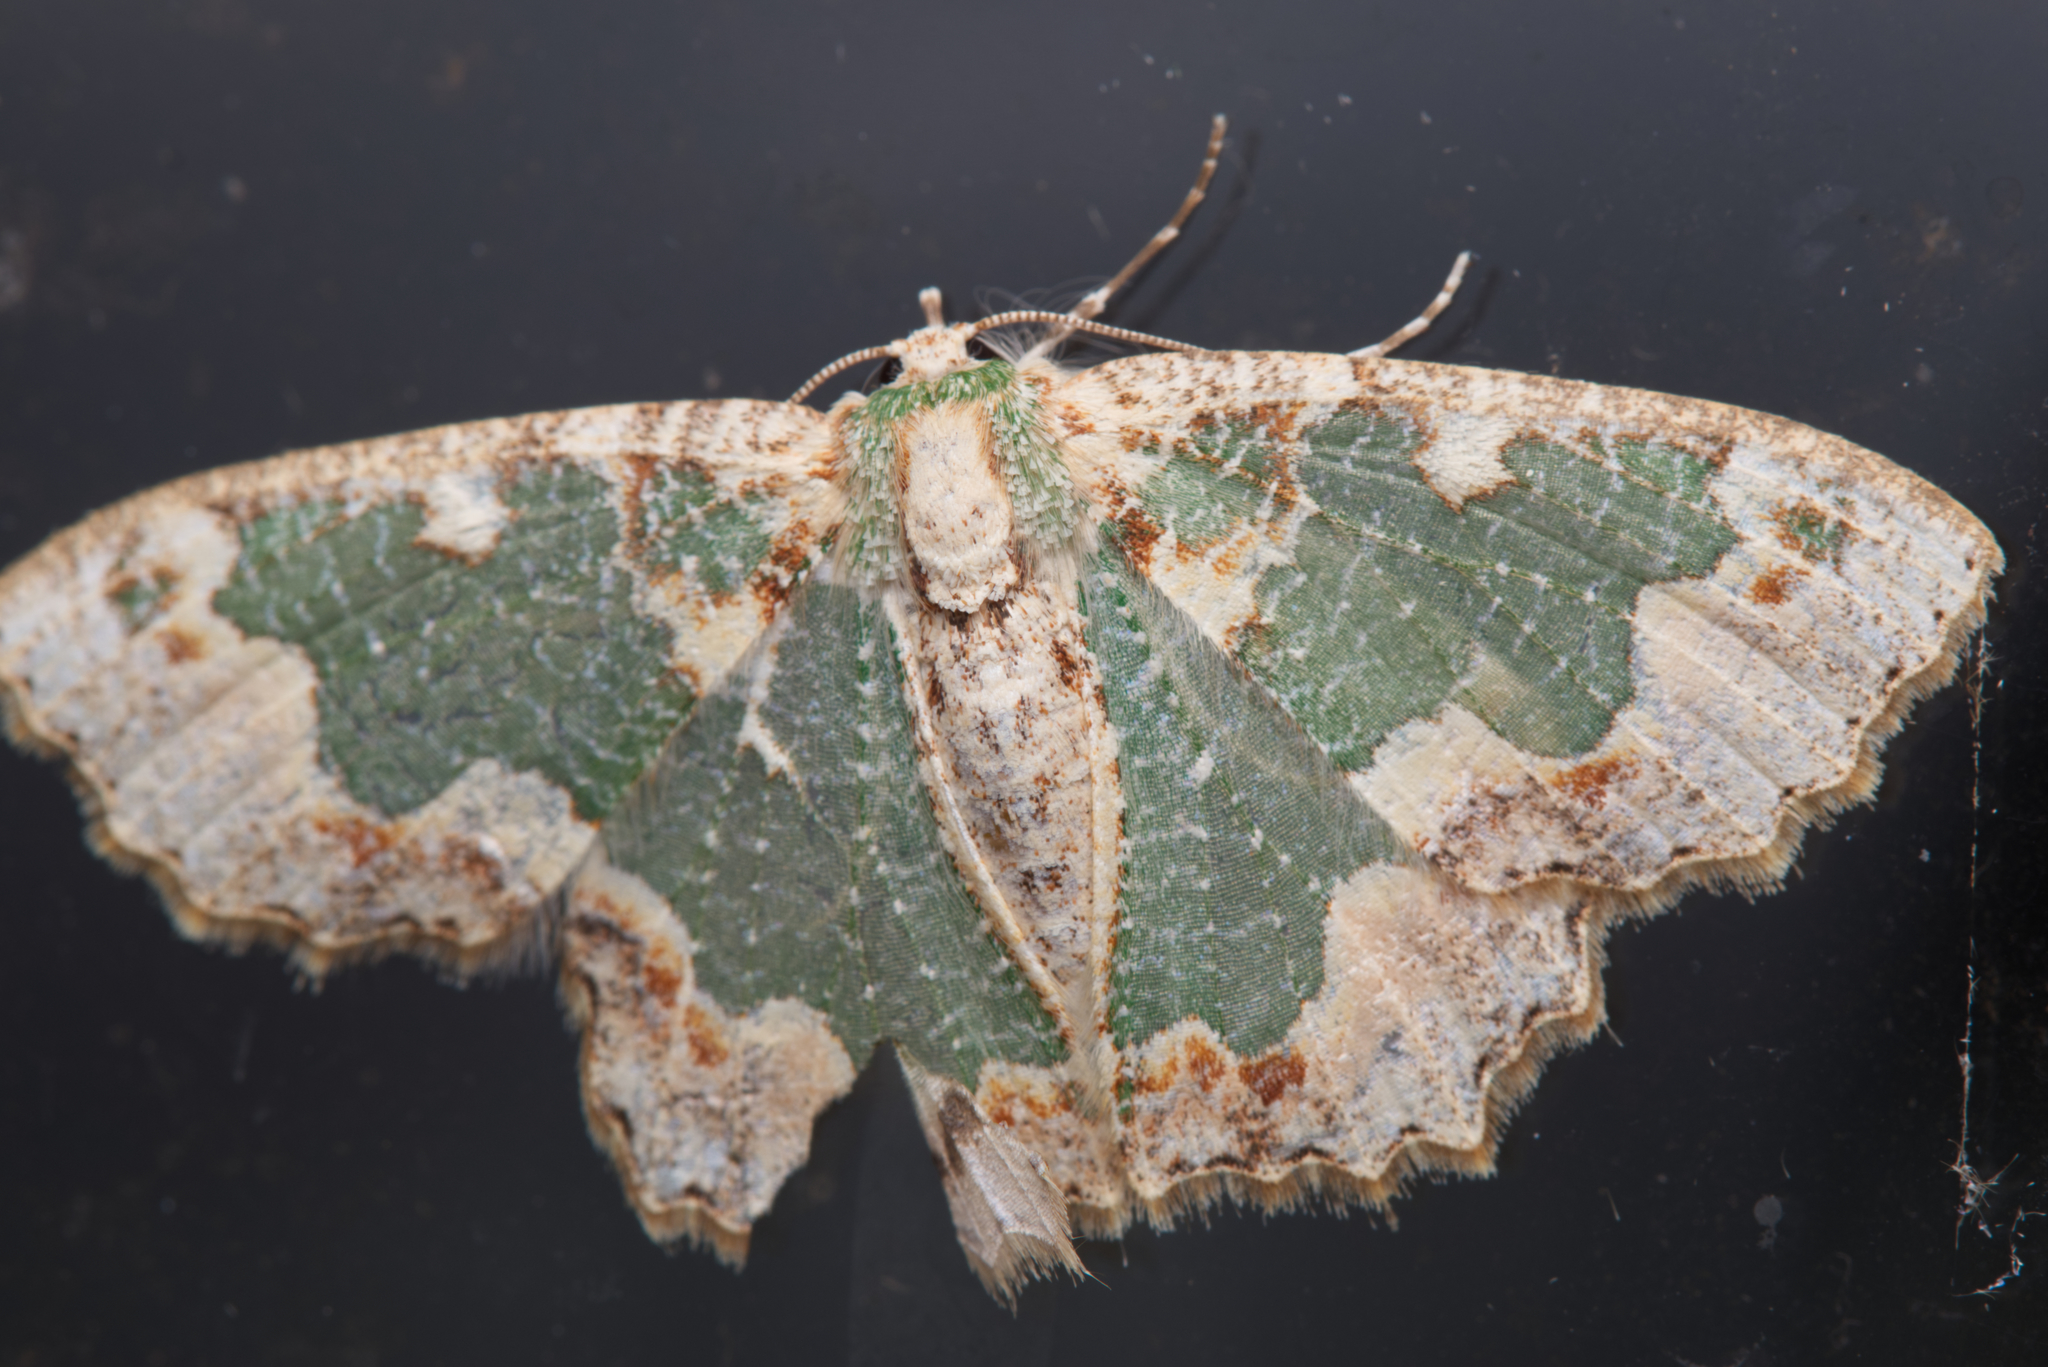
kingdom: Animalia
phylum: Arthropoda
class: Insecta
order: Lepidoptera
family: Geometridae
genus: Eucyclodes
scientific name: Eucyclodes pieroides
